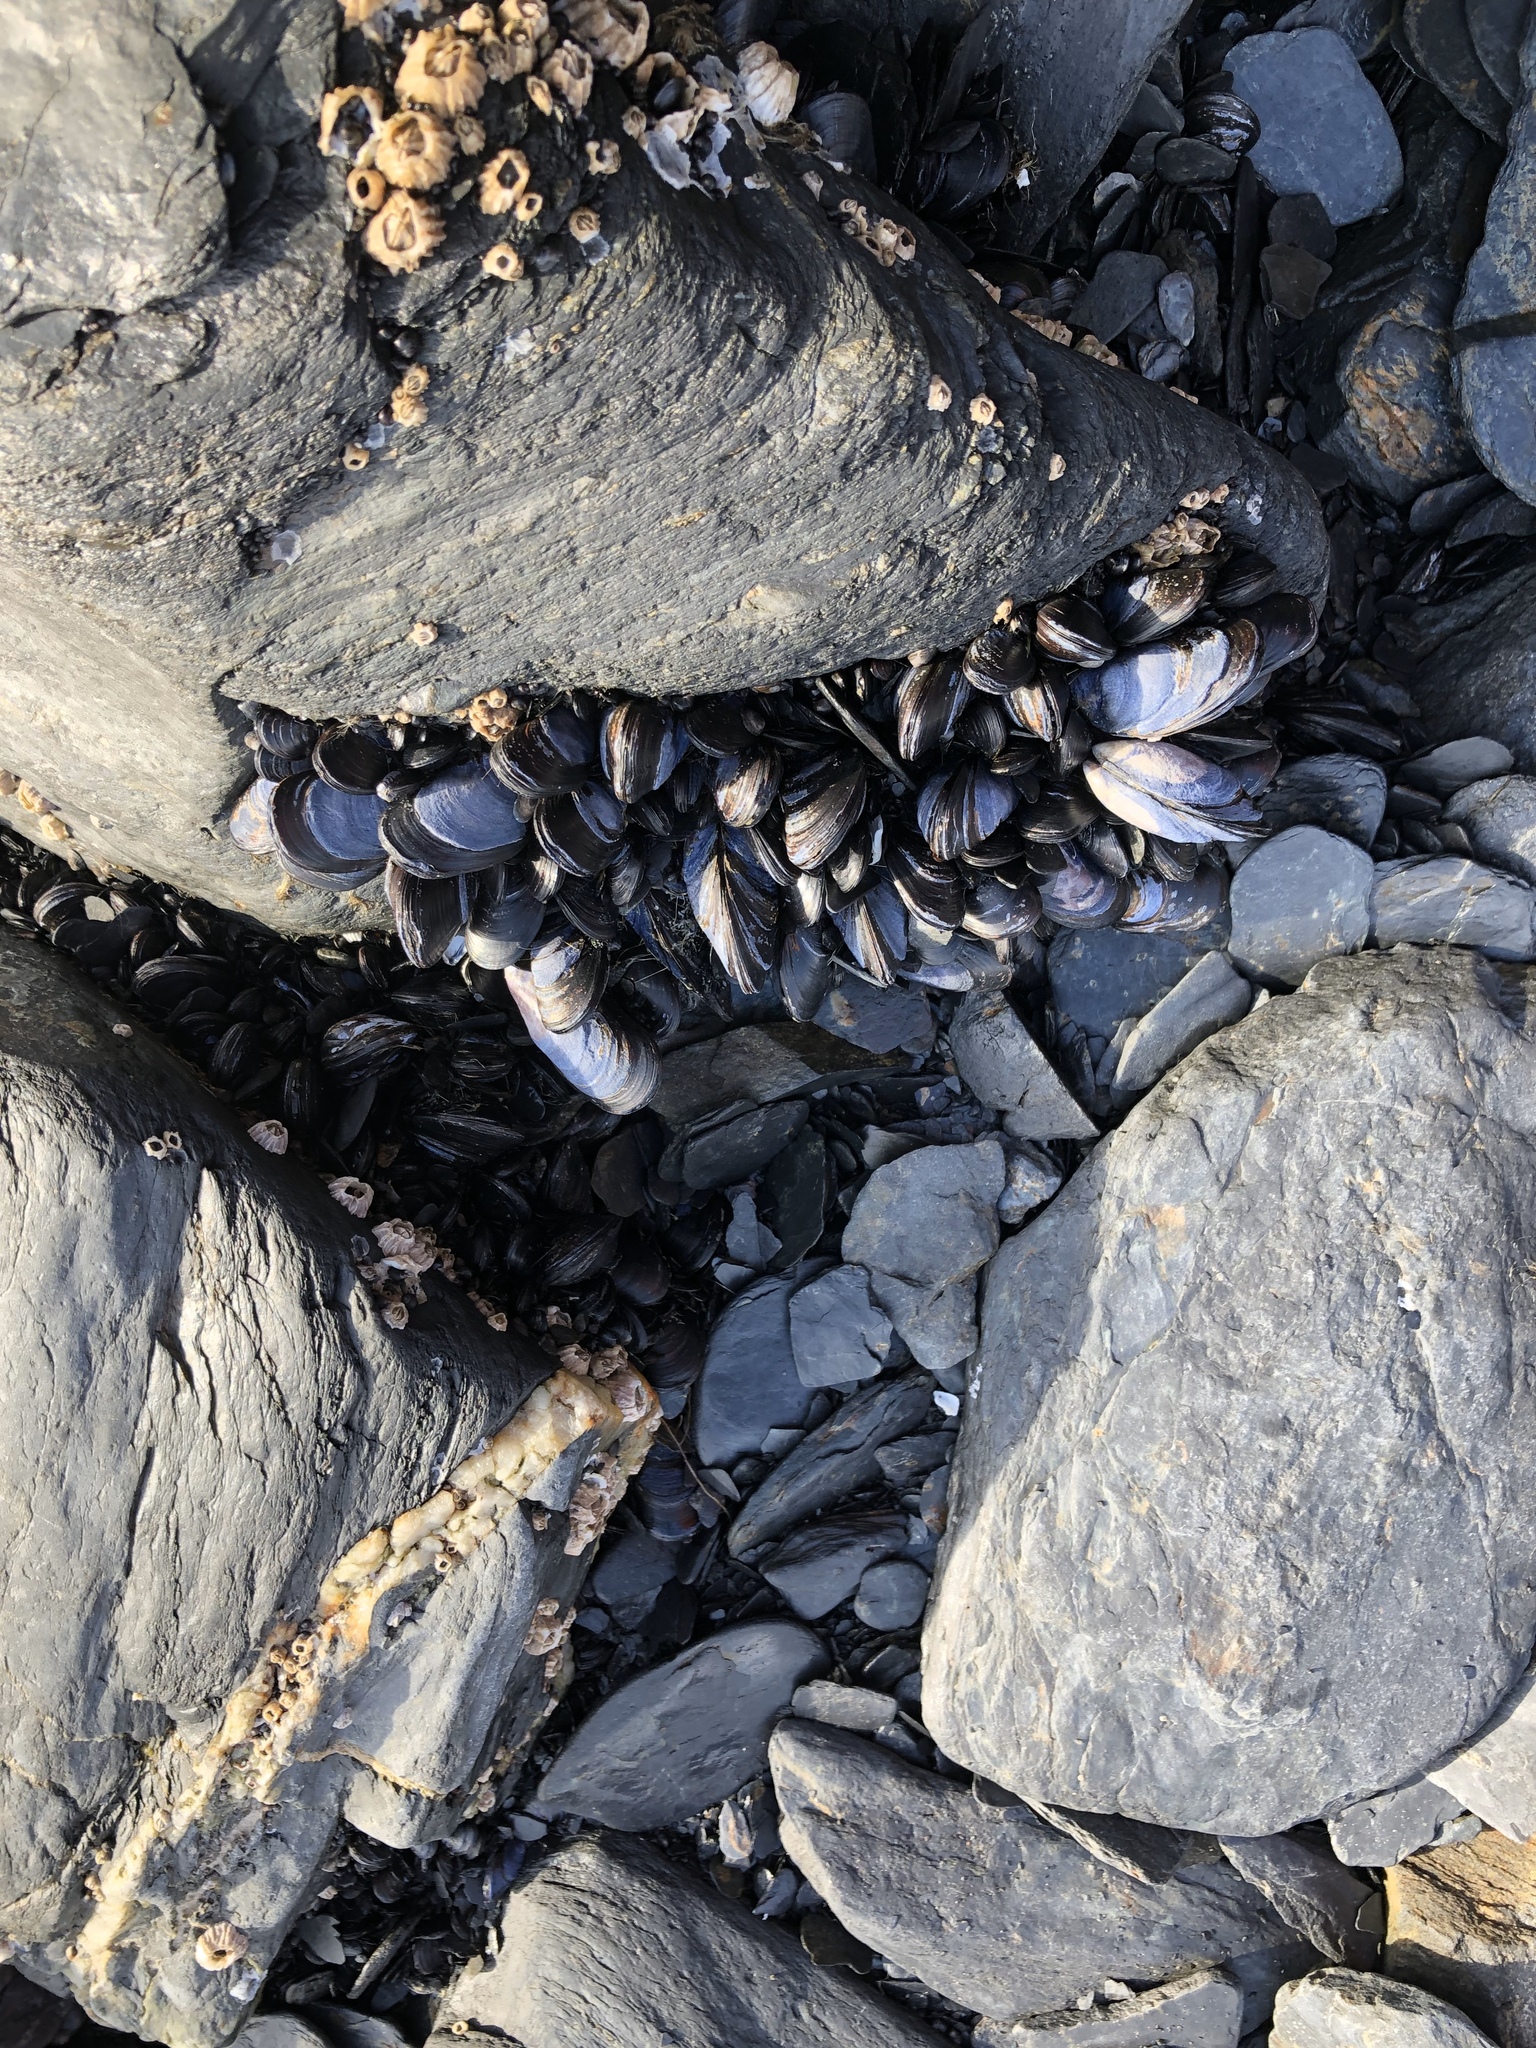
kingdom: Animalia
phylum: Mollusca
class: Bivalvia
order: Mytilida
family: Mytilidae
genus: Mytilus
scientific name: Mytilus trossulus
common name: Northern blue mussel
